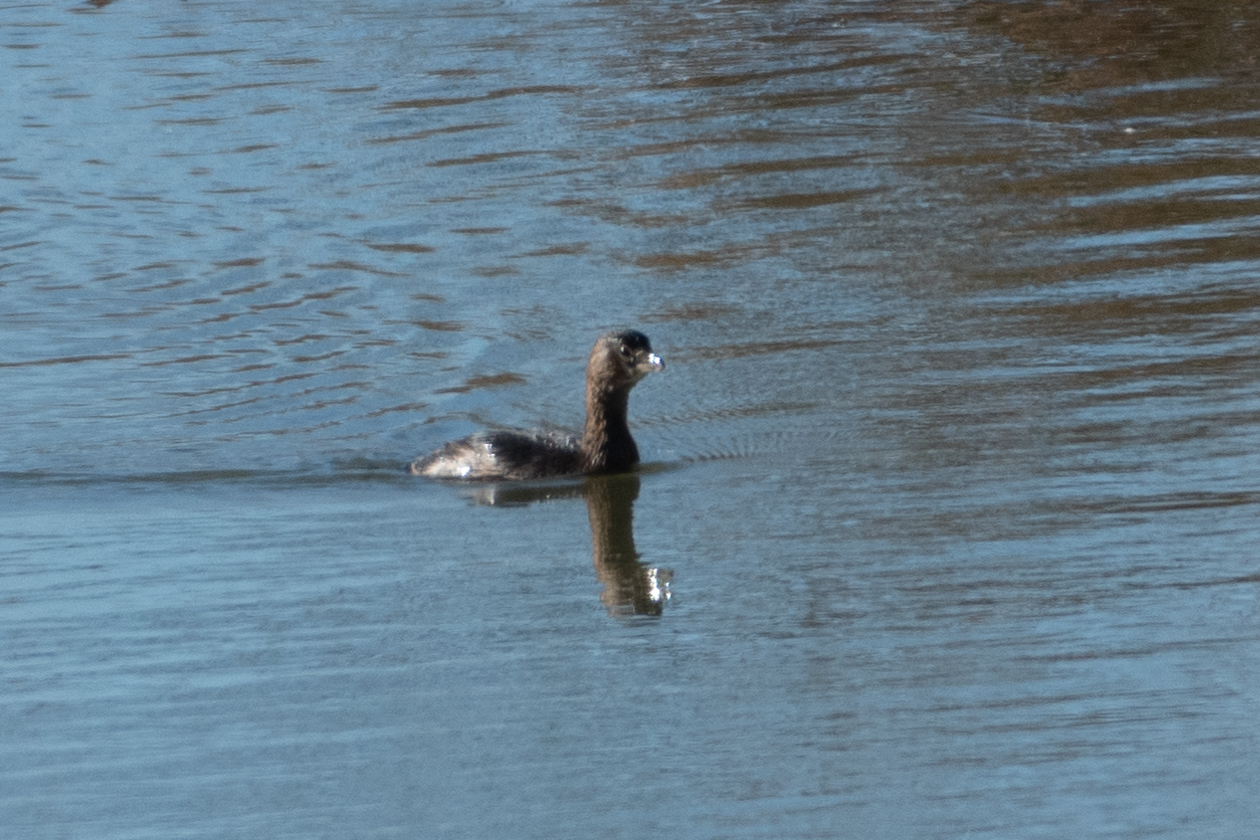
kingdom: Animalia
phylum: Chordata
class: Aves
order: Podicipediformes
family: Podicipedidae
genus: Podilymbus
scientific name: Podilymbus podiceps
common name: Pied-billed grebe
